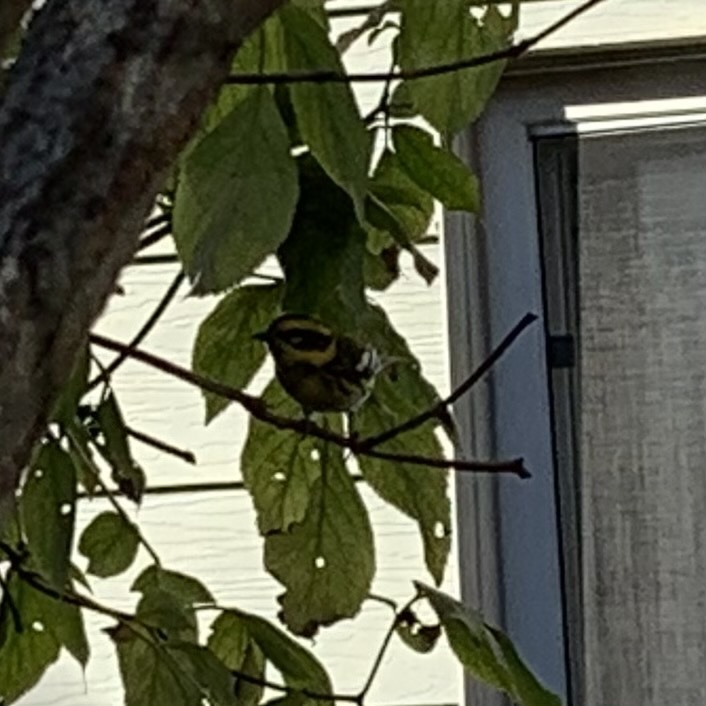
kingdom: Animalia
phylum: Chordata
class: Aves
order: Passeriformes
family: Parulidae
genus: Setophaga
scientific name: Setophaga townsendi
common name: Townsend's warbler
